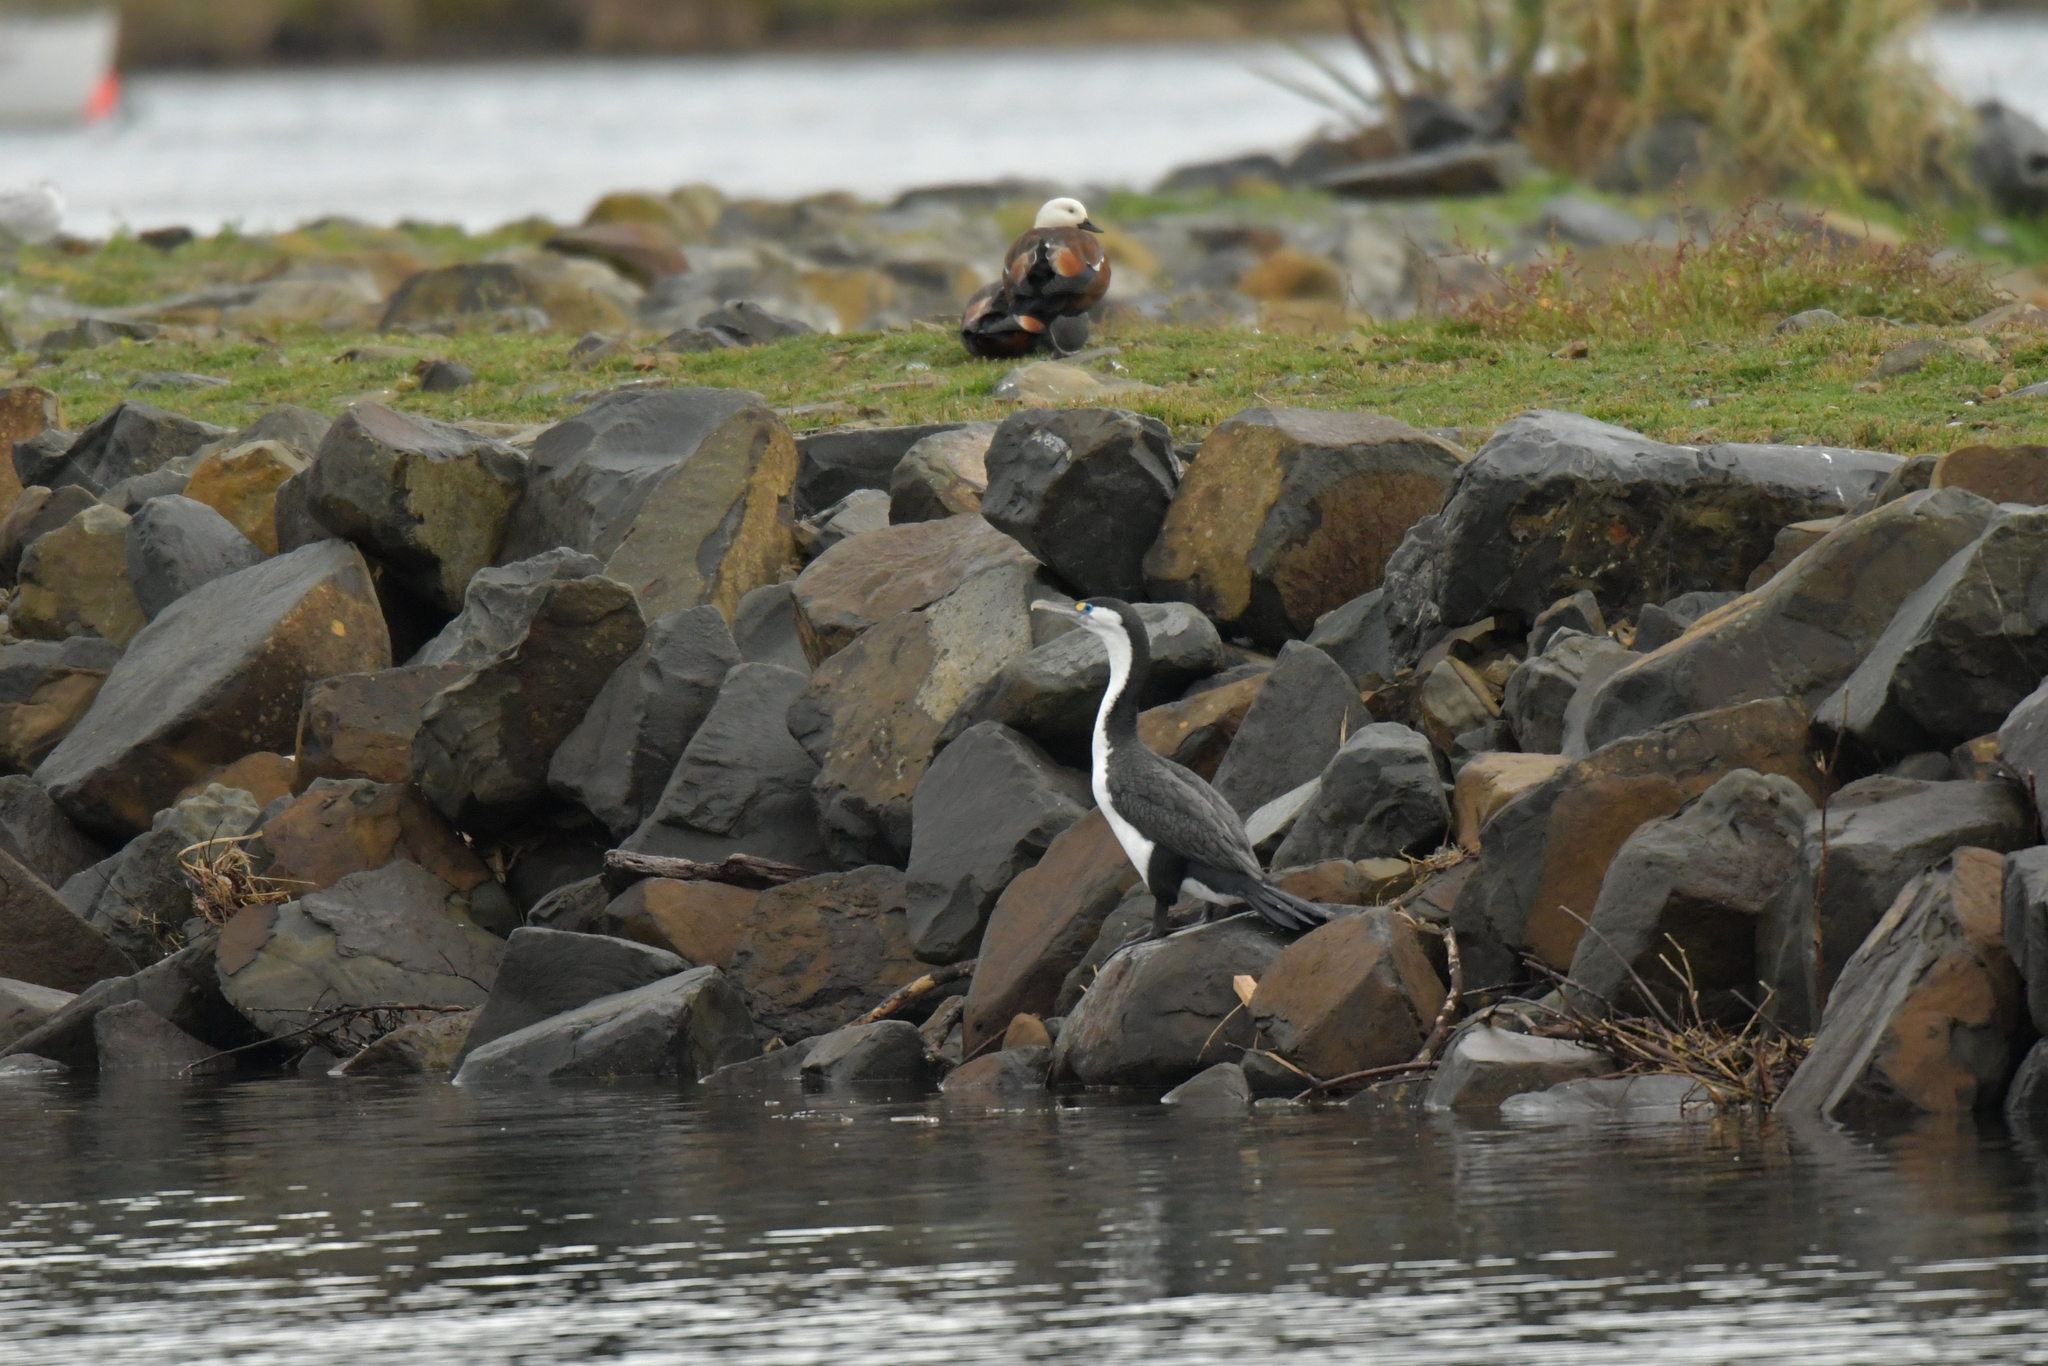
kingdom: Animalia
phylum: Chordata
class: Aves
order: Suliformes
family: Phalacrocoracidae
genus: Phalacrocorax
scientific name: Phalacrocorax varius
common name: Pied cormorant
